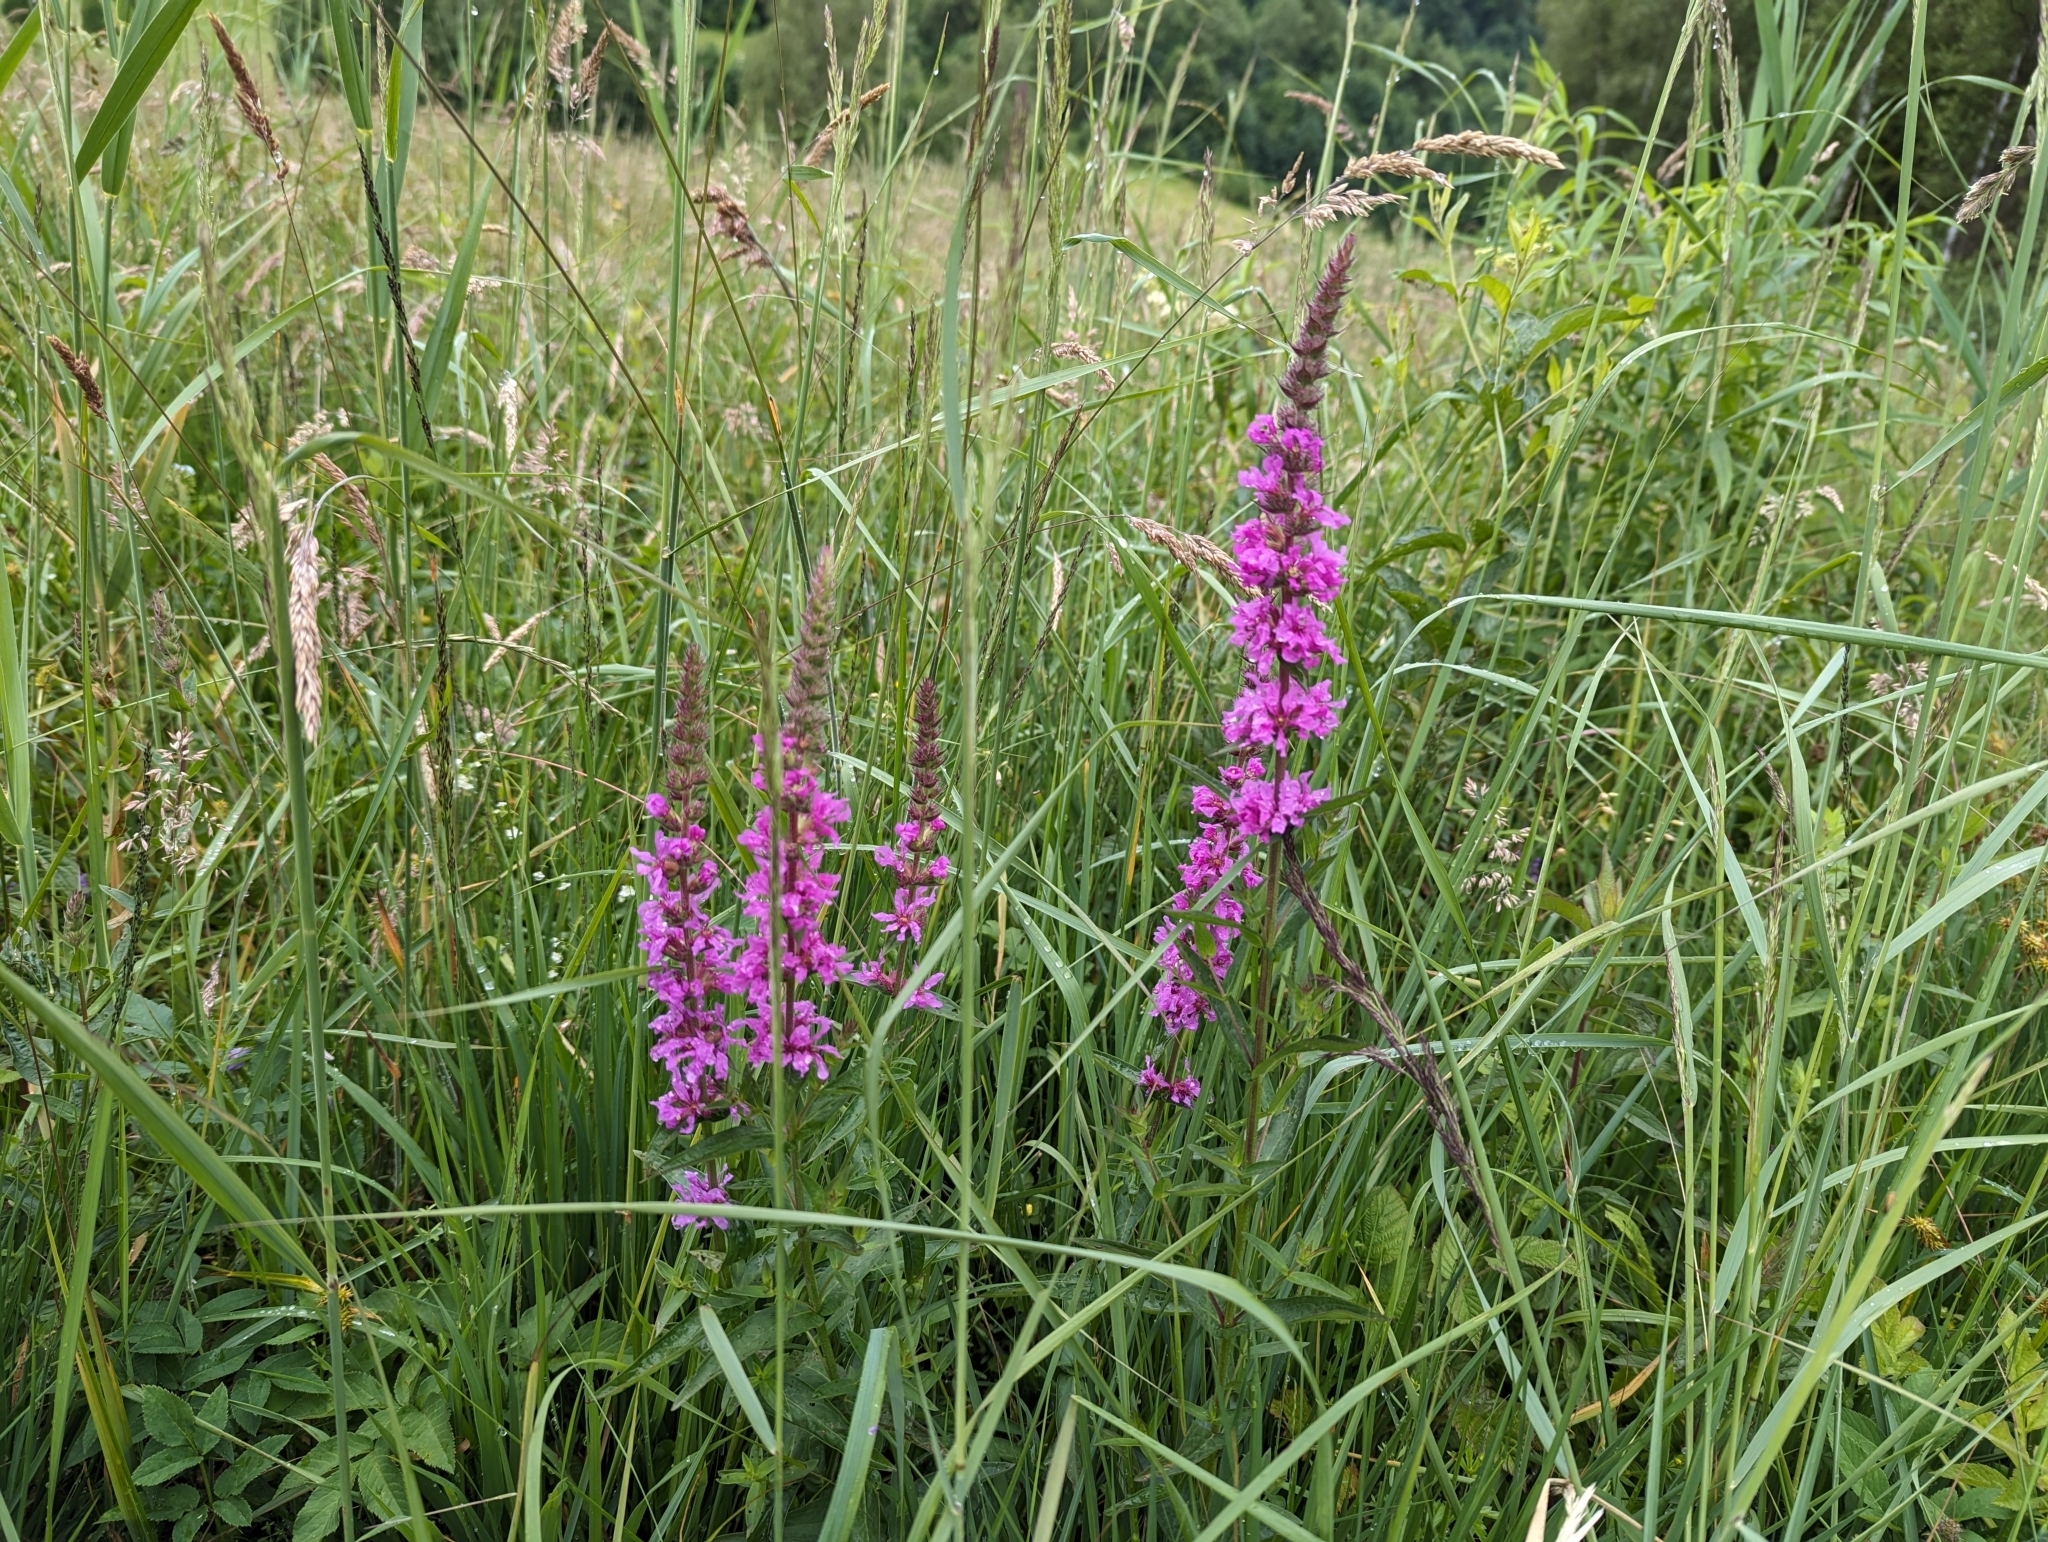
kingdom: Plantae
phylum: Tracheophyta
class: Magnoliopsida
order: Myrtales
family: Lythraceae
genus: Lythrum
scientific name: Lythrum salicaria
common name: Purple loosestrife
